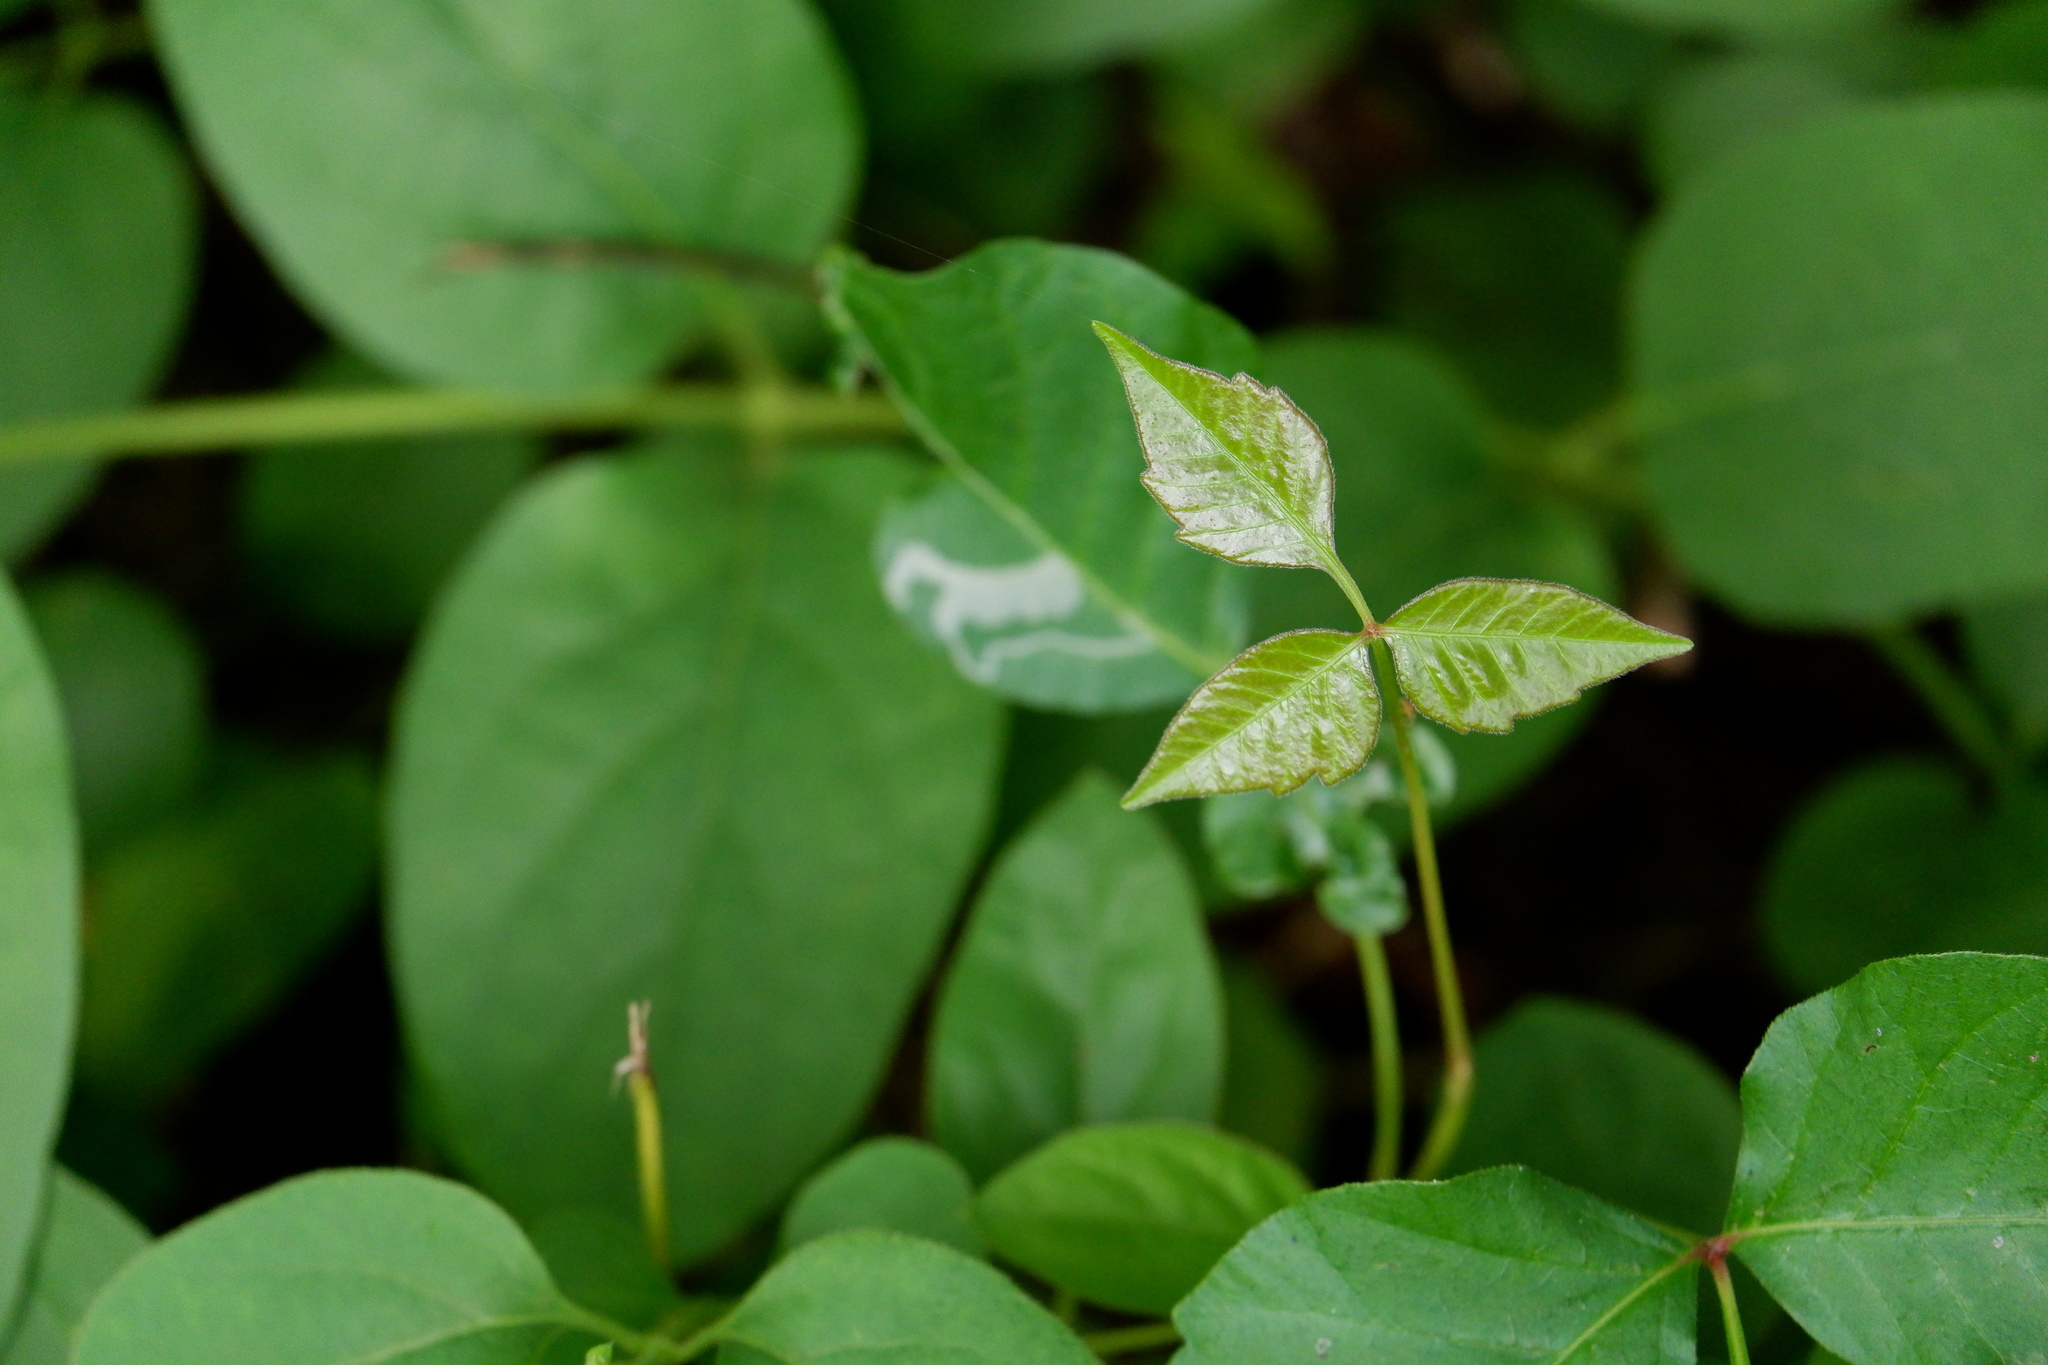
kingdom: Plantae
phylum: Tracheophyta
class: Magnoliopsida
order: Sapindales
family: Anacardiaceae
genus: Toxicodendron
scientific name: Toxicodendron radicans
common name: Poison ivy
